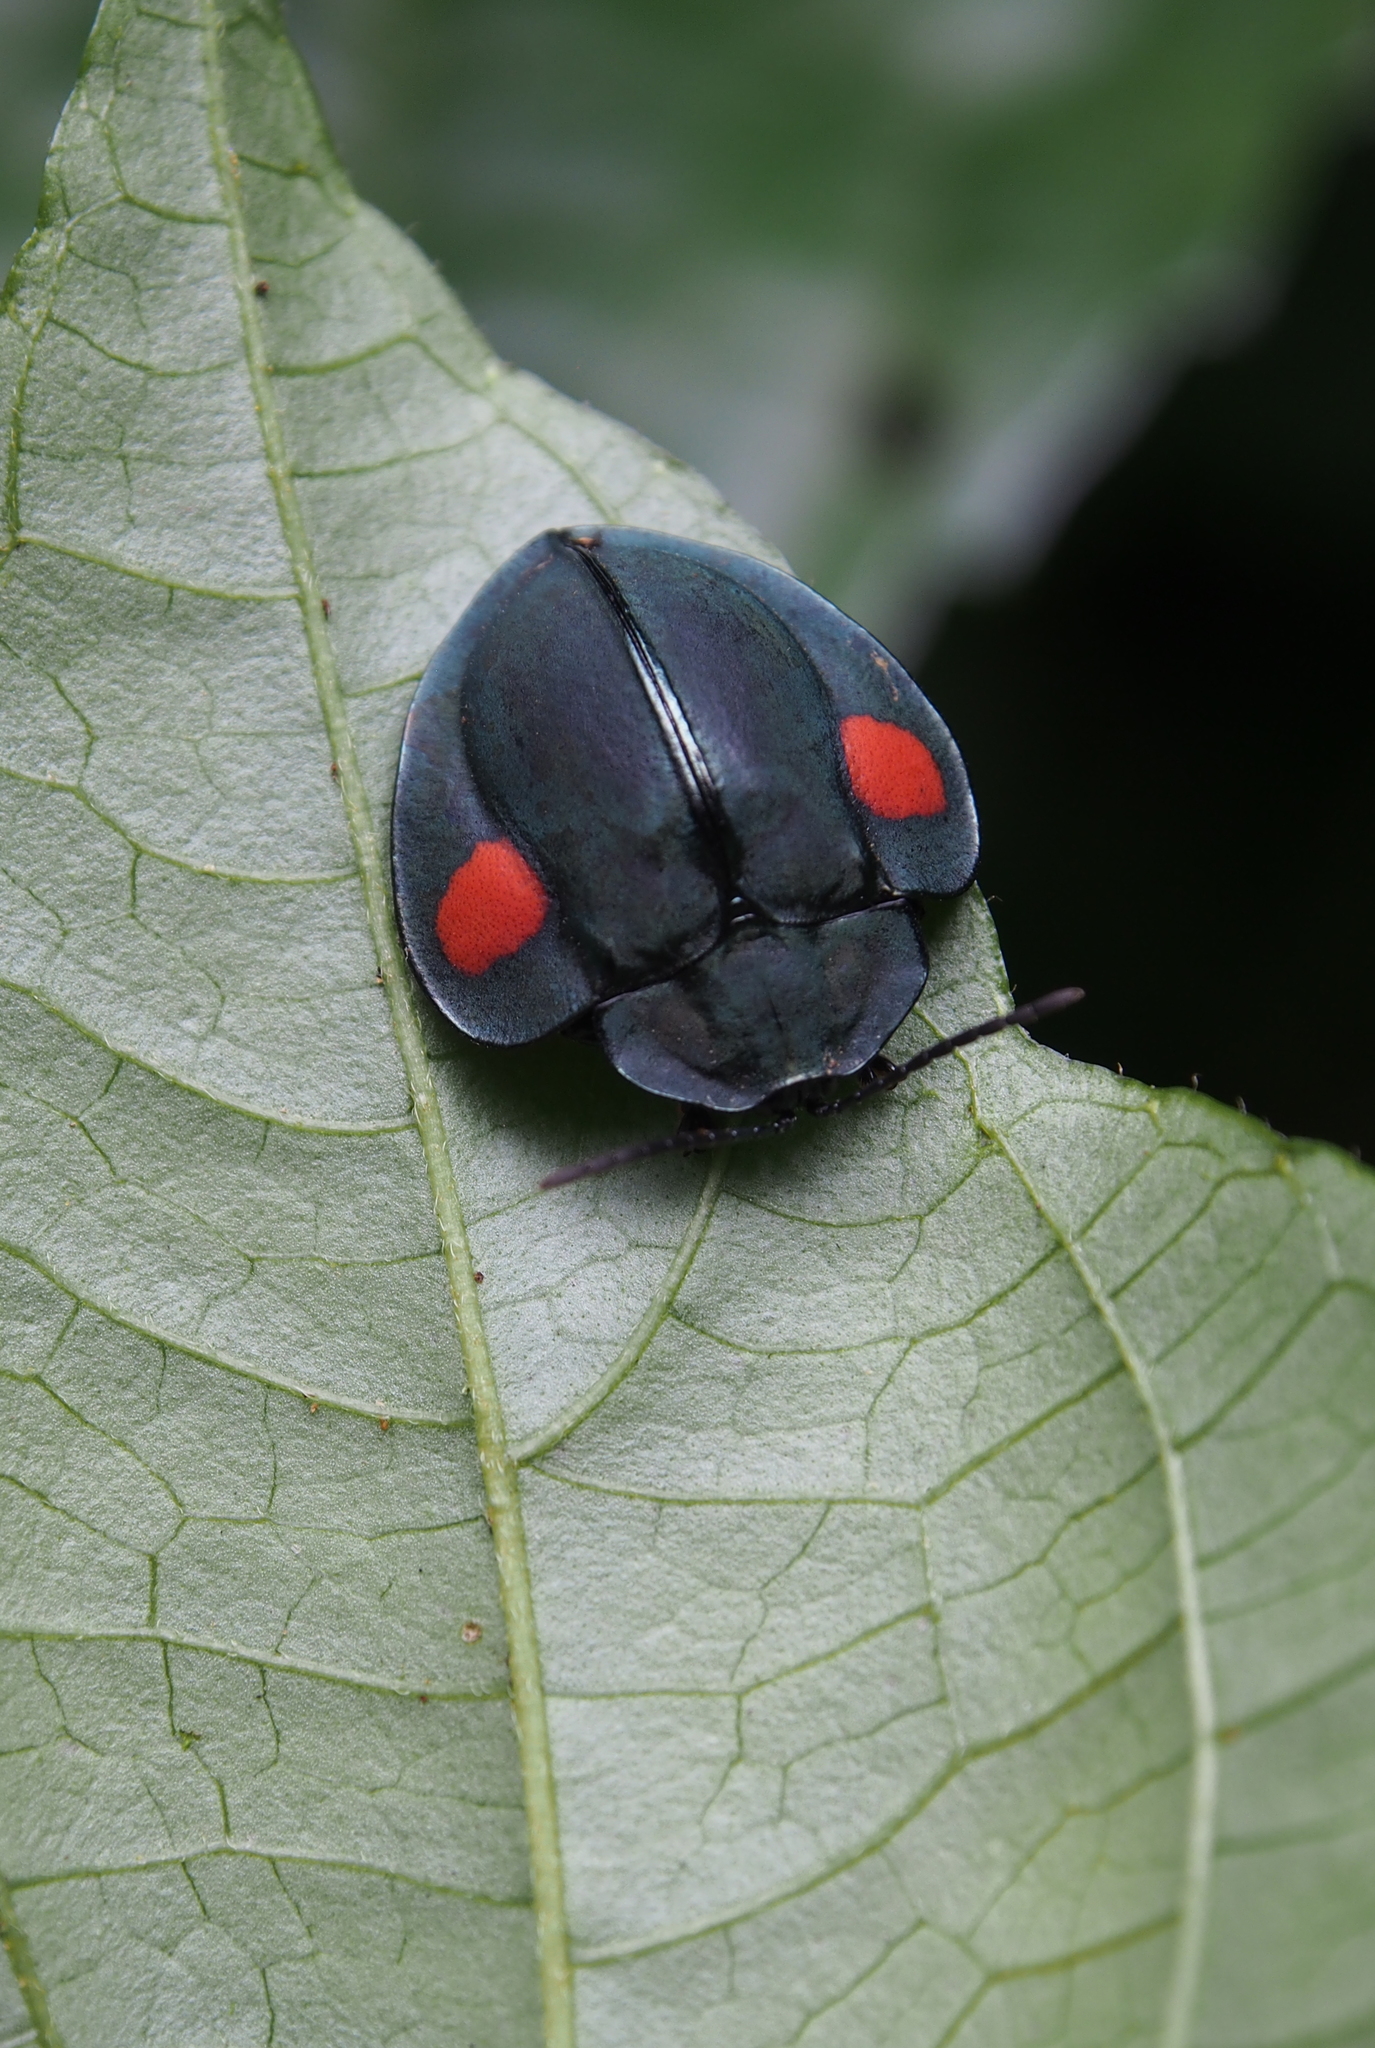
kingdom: Animalia
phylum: Arthropoda
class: Insecta
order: Coleoptera
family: Chrysomelidae
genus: Stolas
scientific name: Stolas
